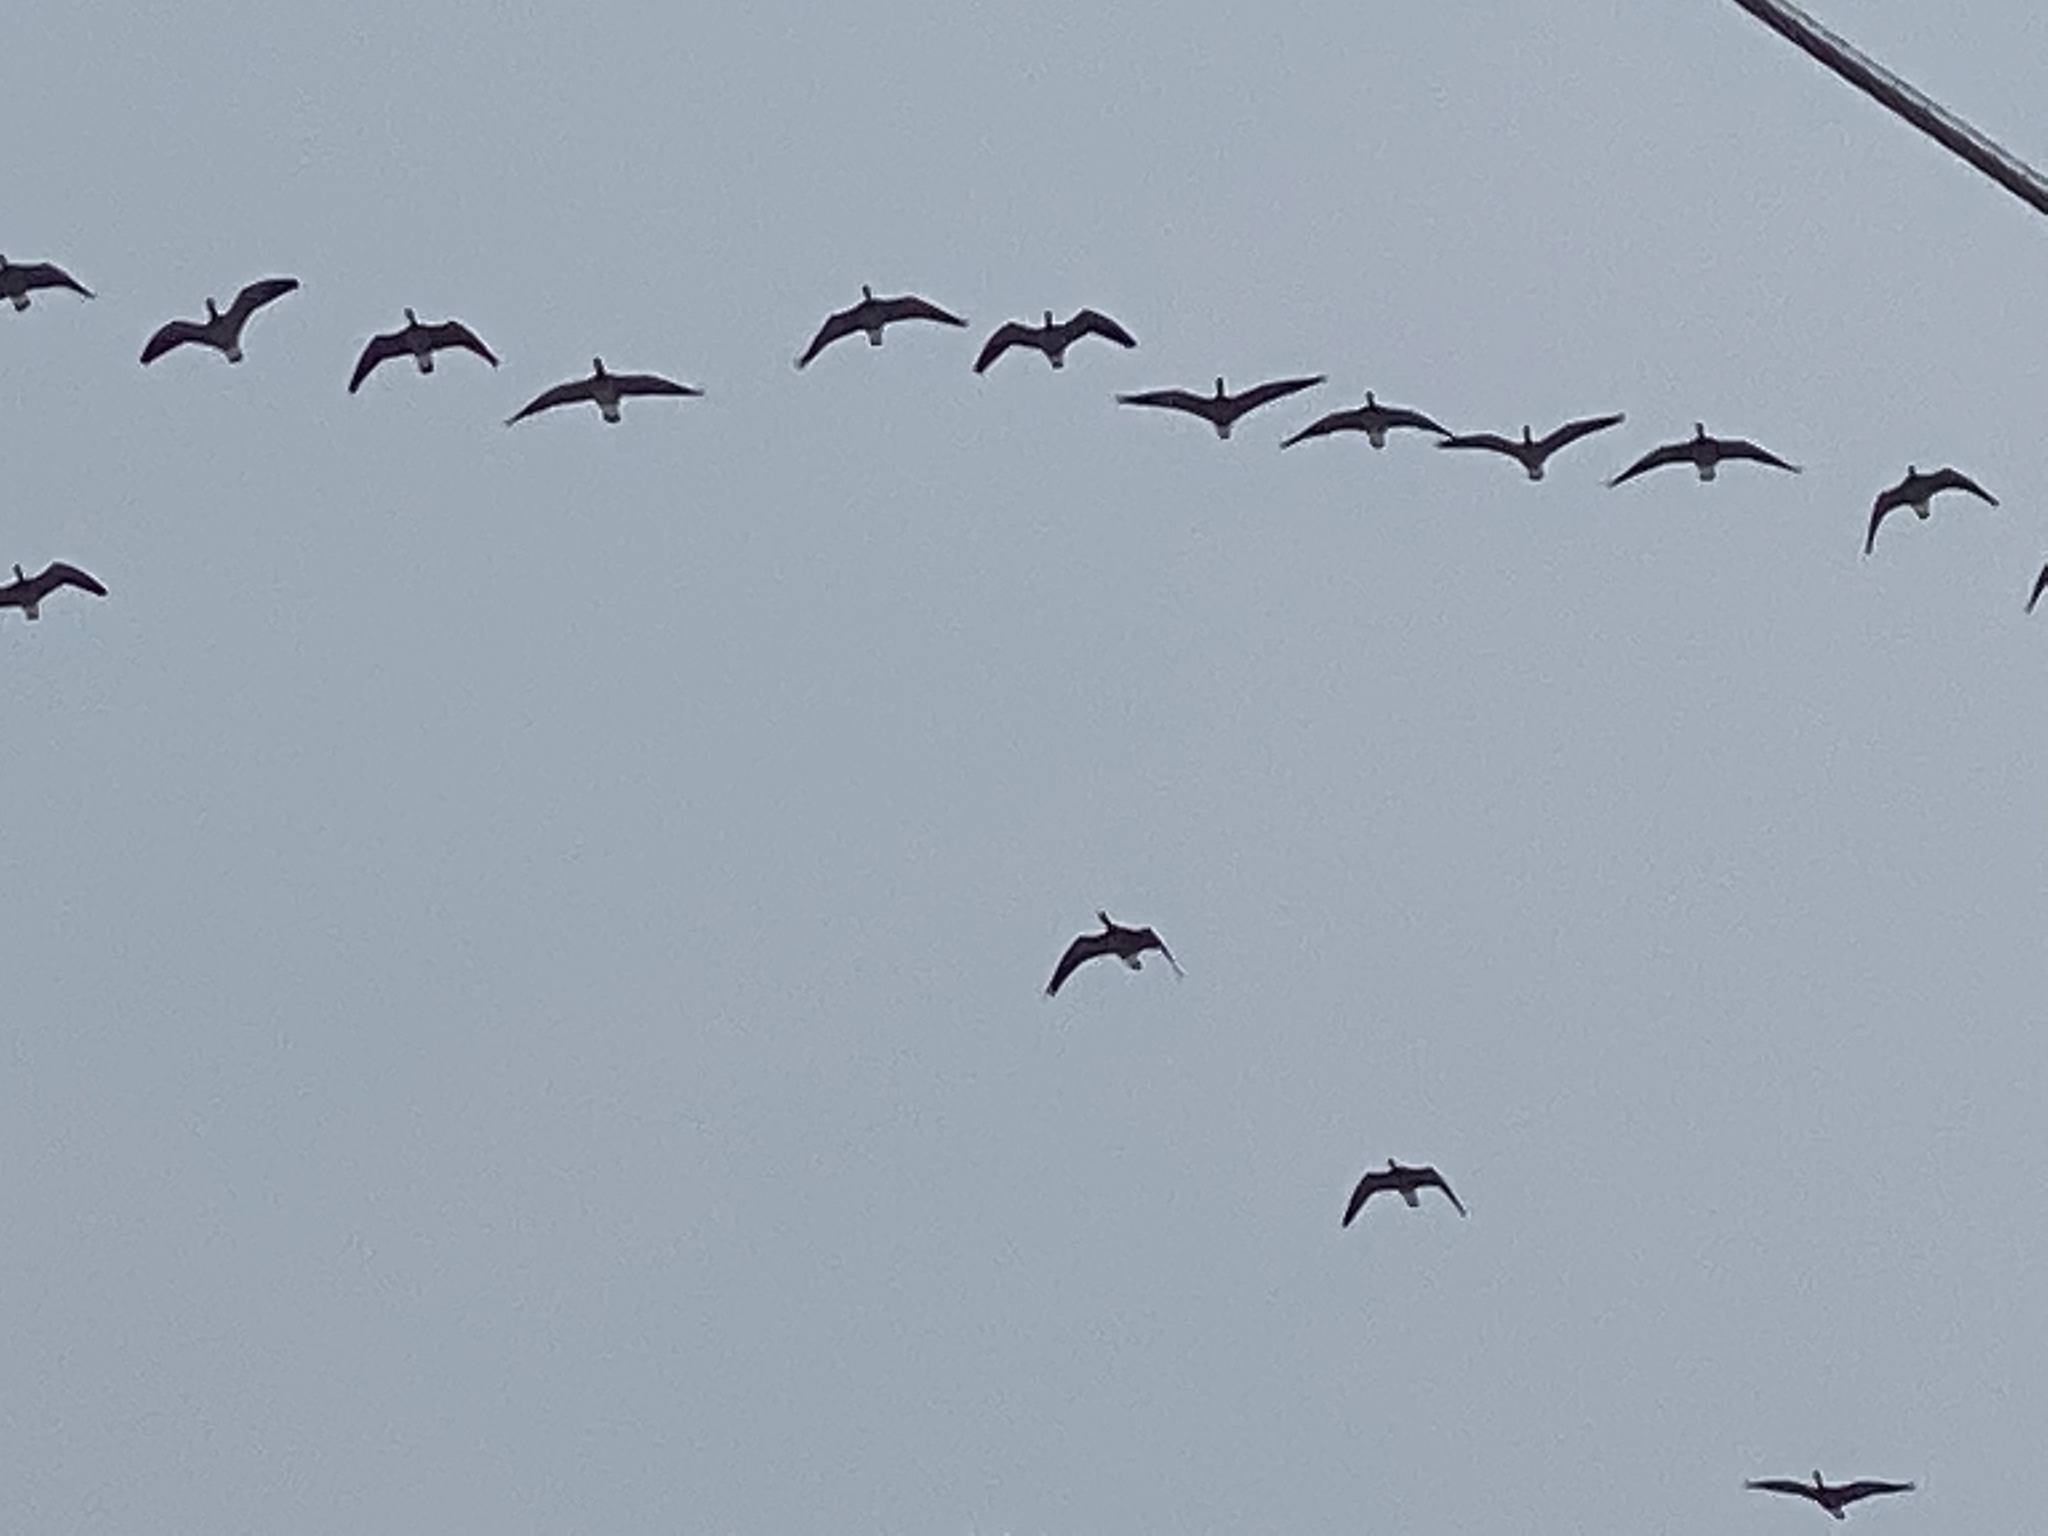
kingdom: Animalia
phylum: Chordata
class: Aves
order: Anseriformes
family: Anatidae
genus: Branta
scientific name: Branta hutchinsii
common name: Cackling goose
